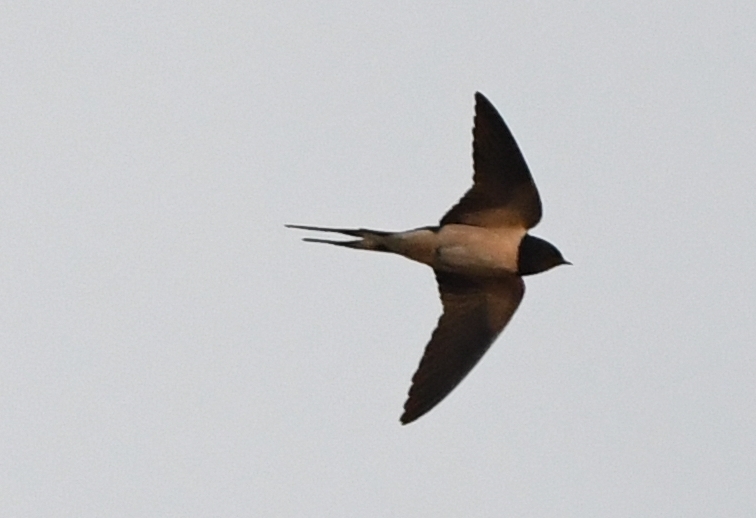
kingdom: Animalia
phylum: Chordata
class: Aves
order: Passeriformes
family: Hirundinidae
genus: Hirundo
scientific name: Hirundo rustica
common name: Barn swallow
